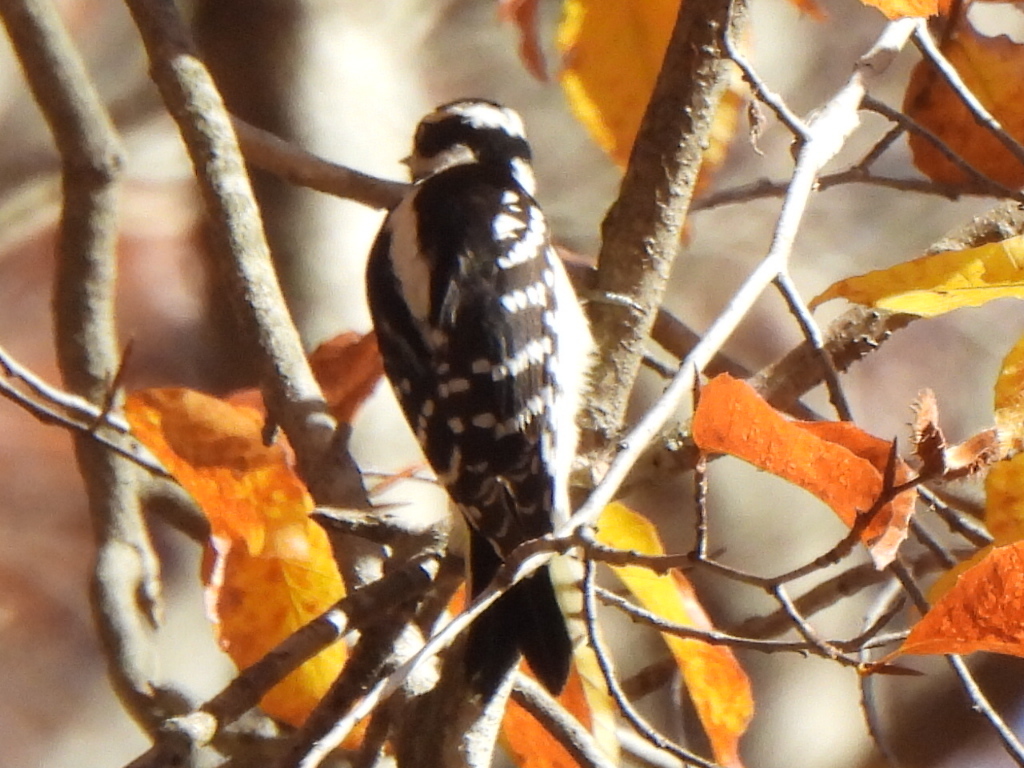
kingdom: Animalia
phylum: Chordata
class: Aves
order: Piciformes
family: Picidae
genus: Dryobates
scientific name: Dryobates pubescens
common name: Downy woodpecker
